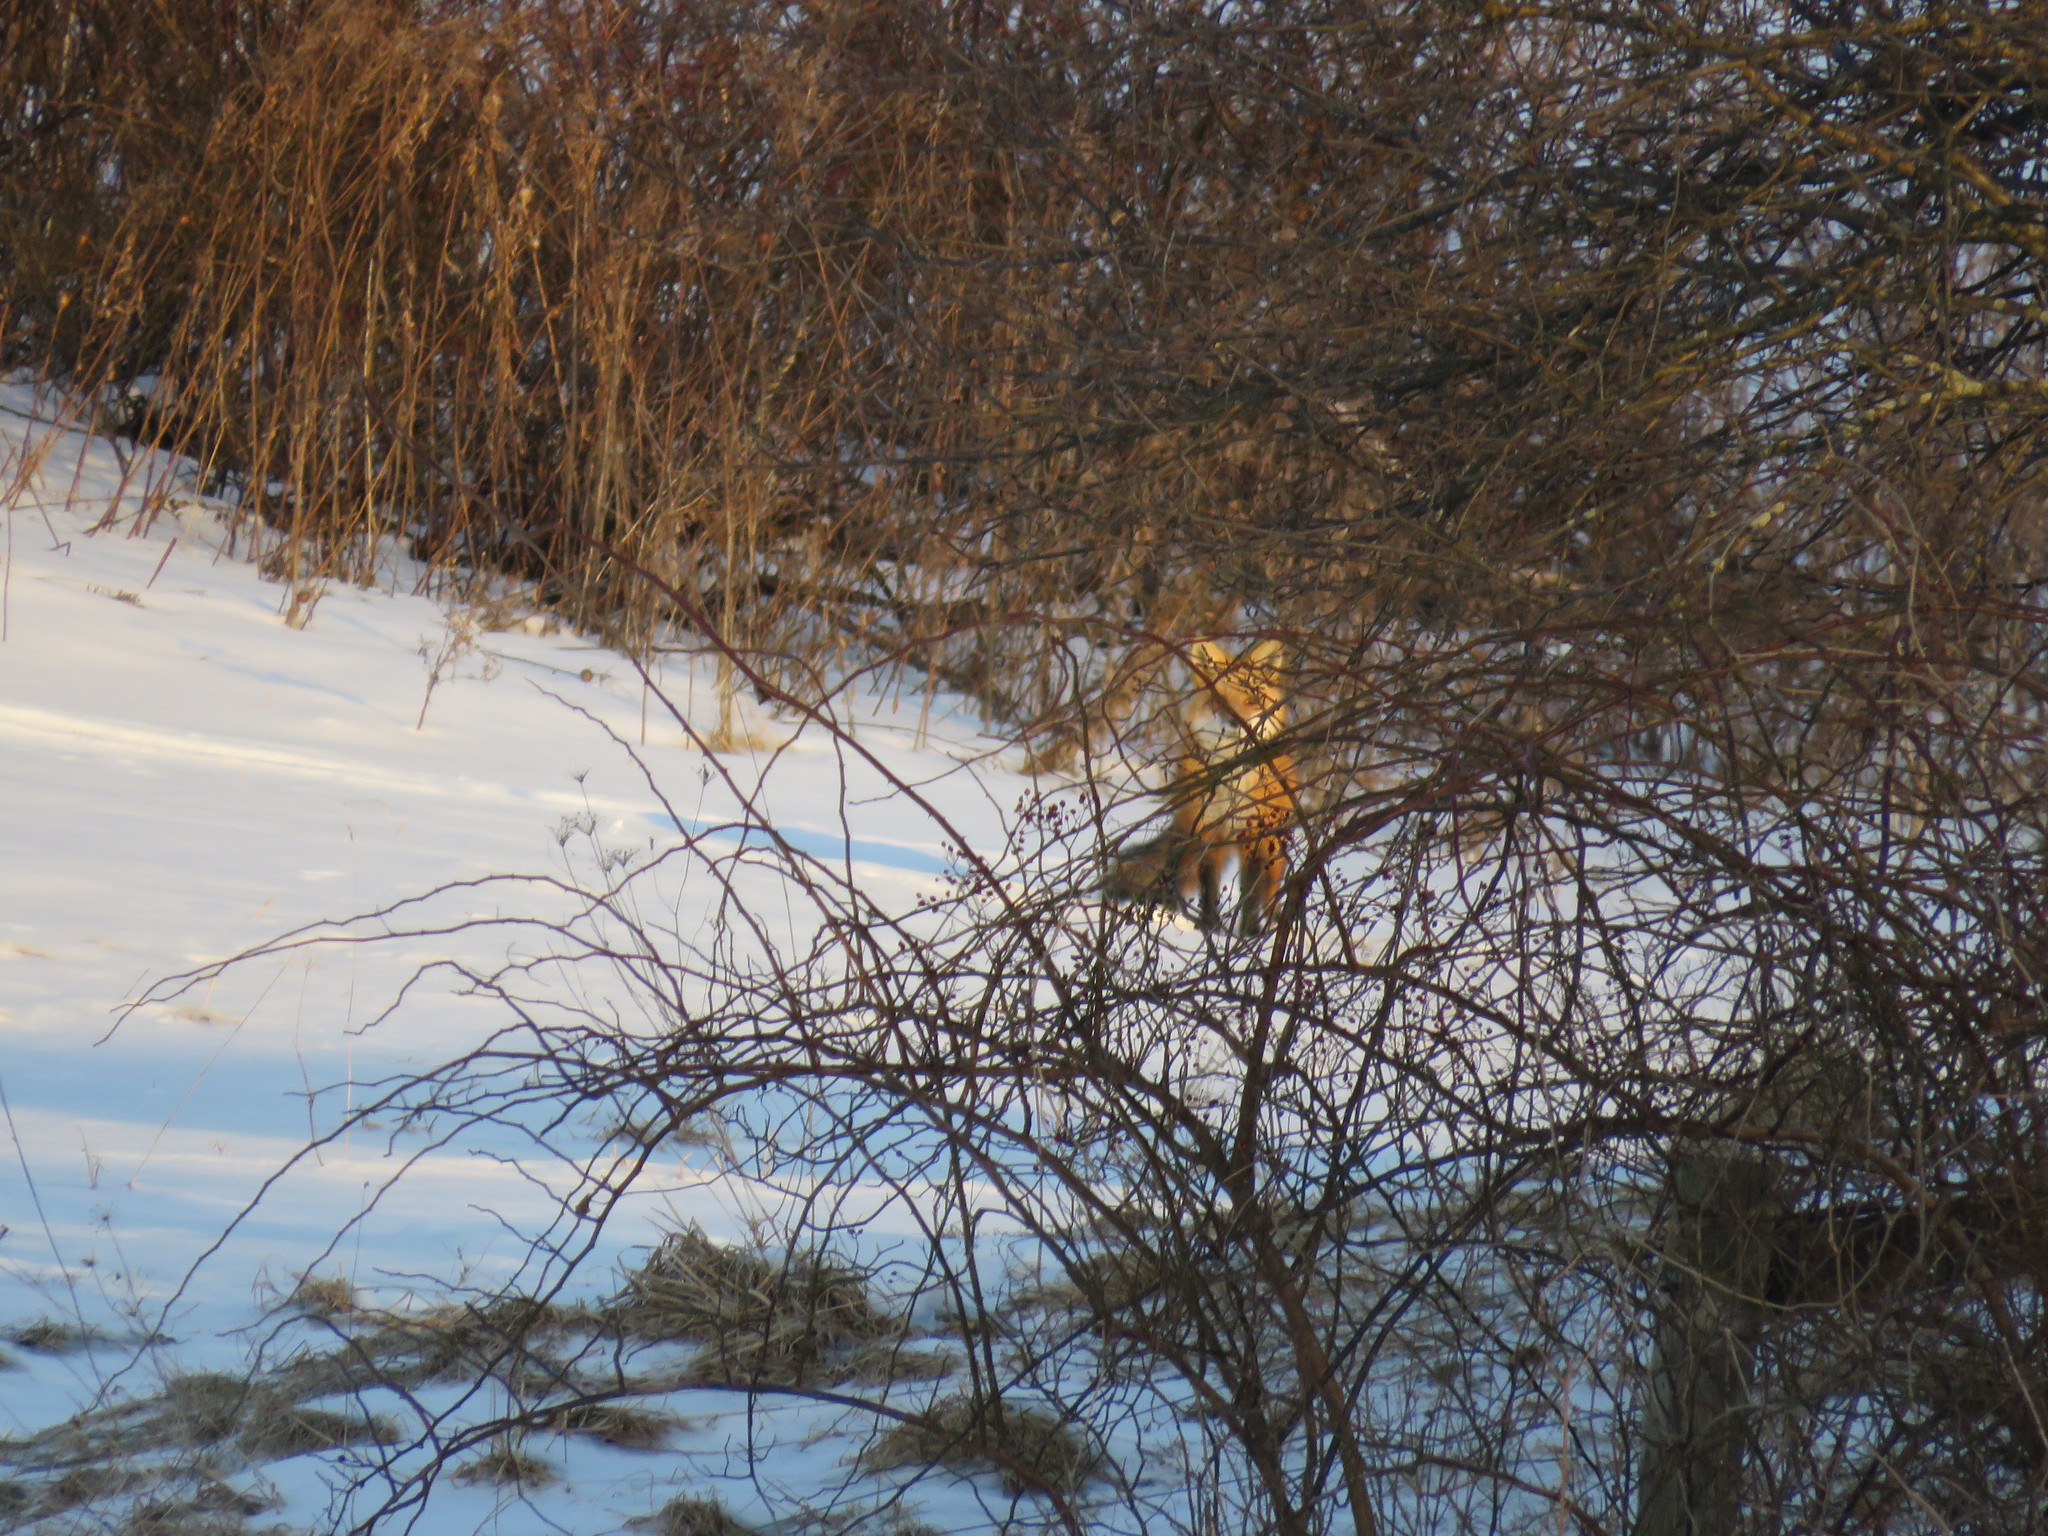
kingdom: Animalia
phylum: Chordata
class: Mammalia
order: Carnivora
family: Canidae
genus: Vulpes
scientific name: Vulpes vulpes
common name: Red fox
